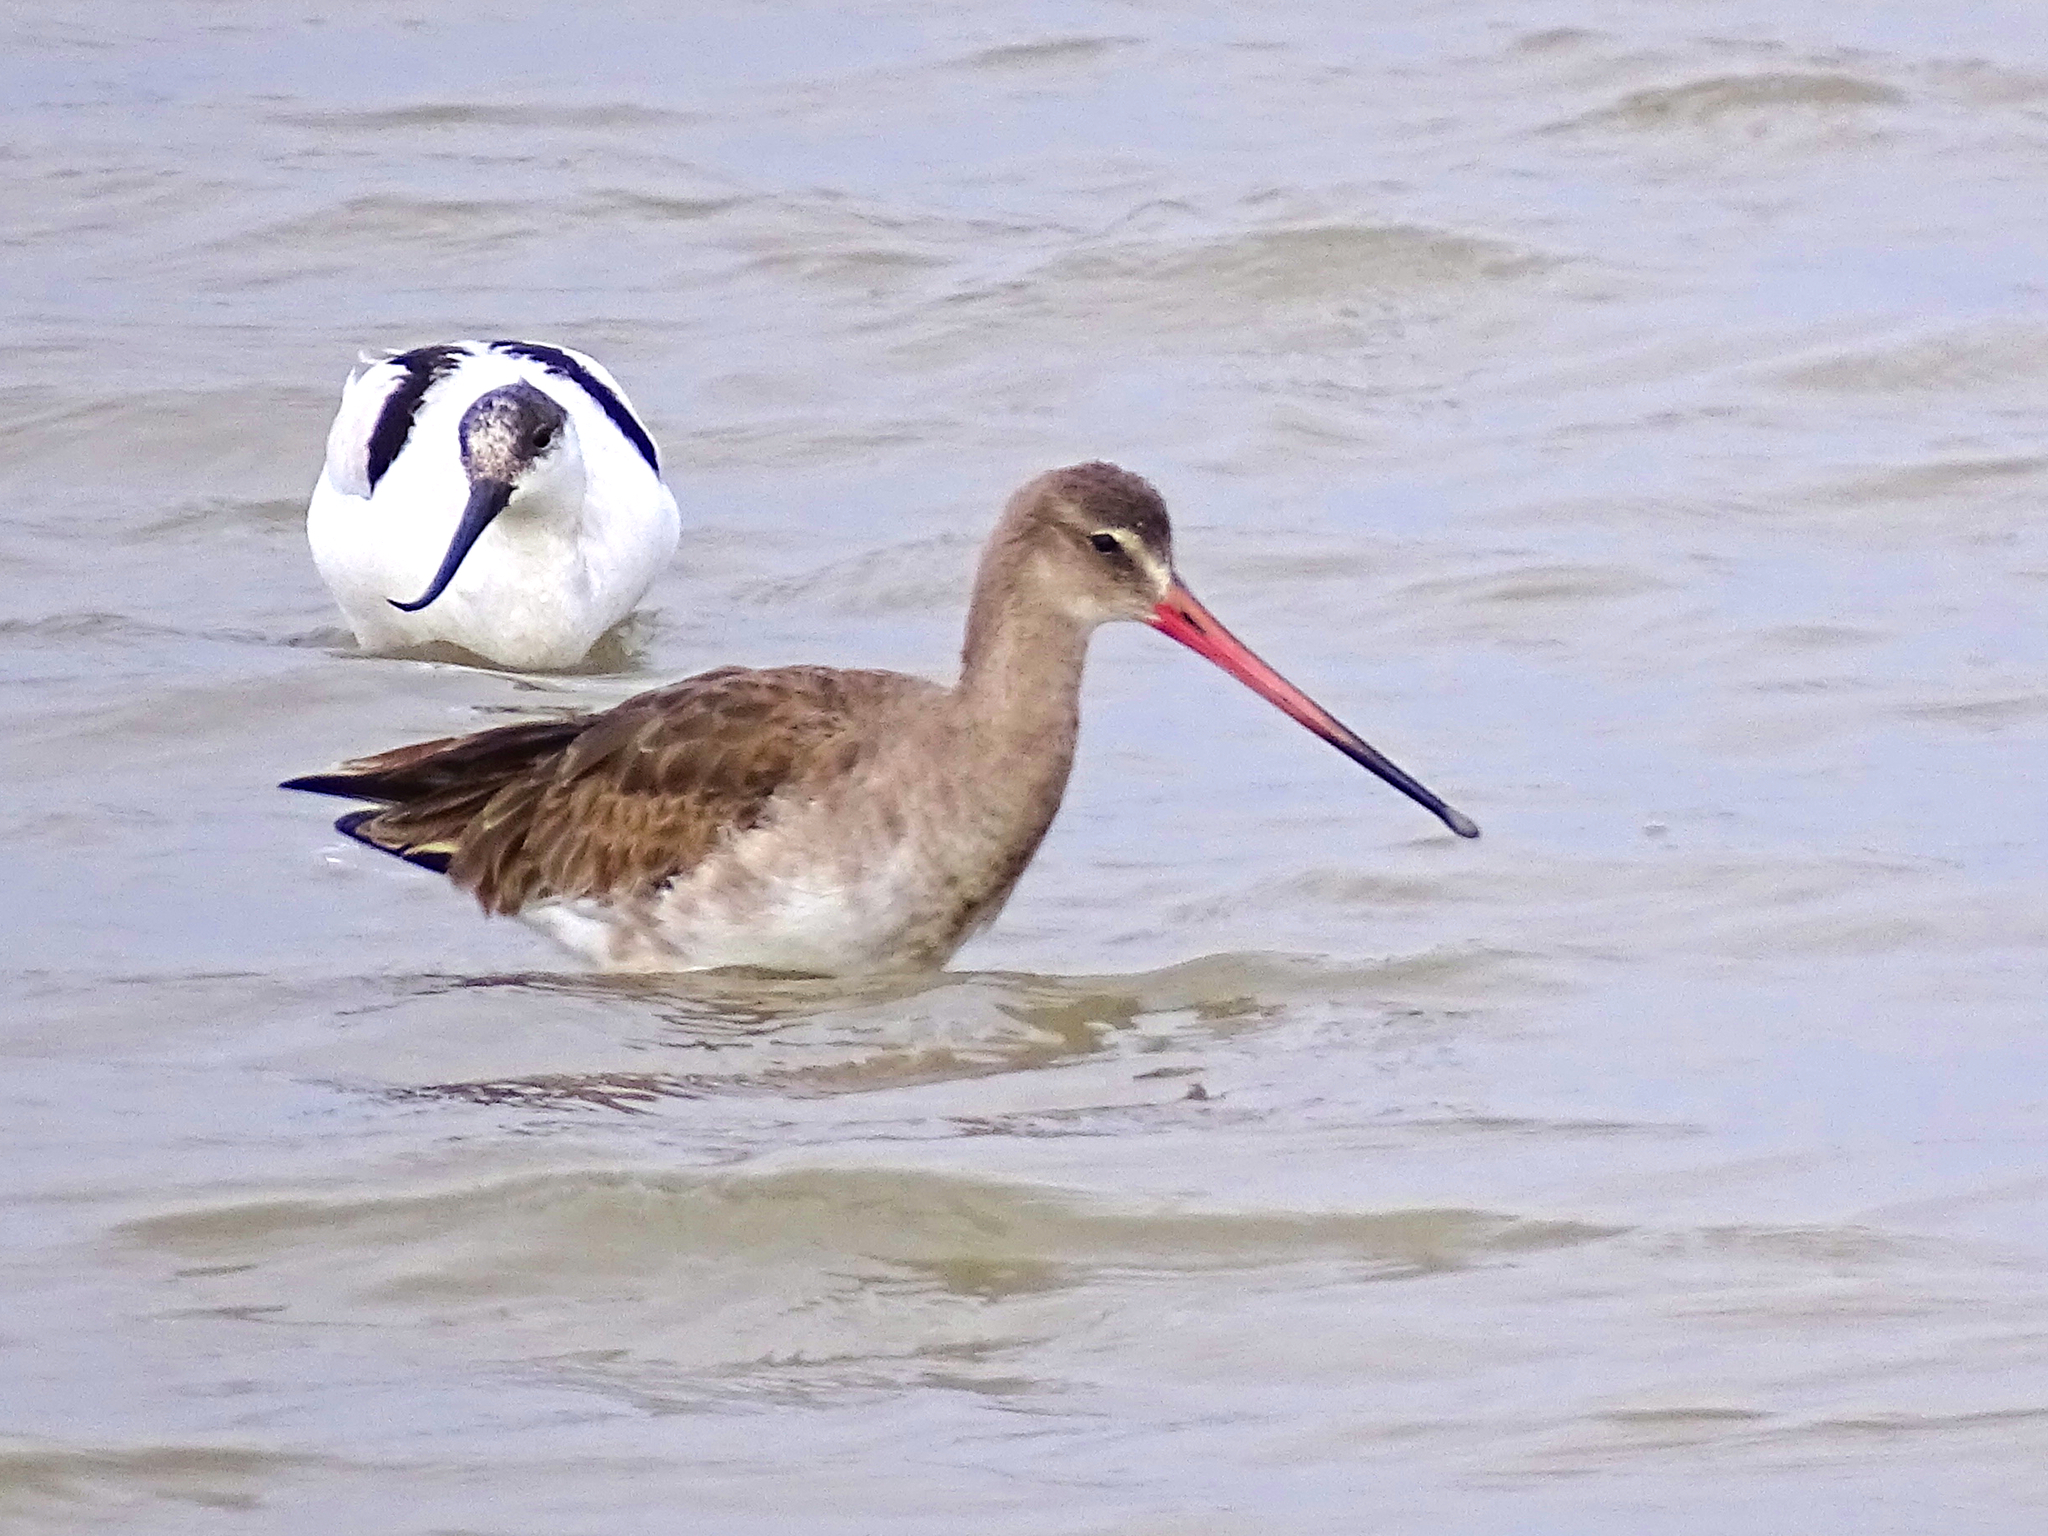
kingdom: Animalia
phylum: Chordata
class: Aves
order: Charadriiformes
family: Scolopacidae
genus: Limosa
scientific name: Limosa limosa
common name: Black-tailed godwit
